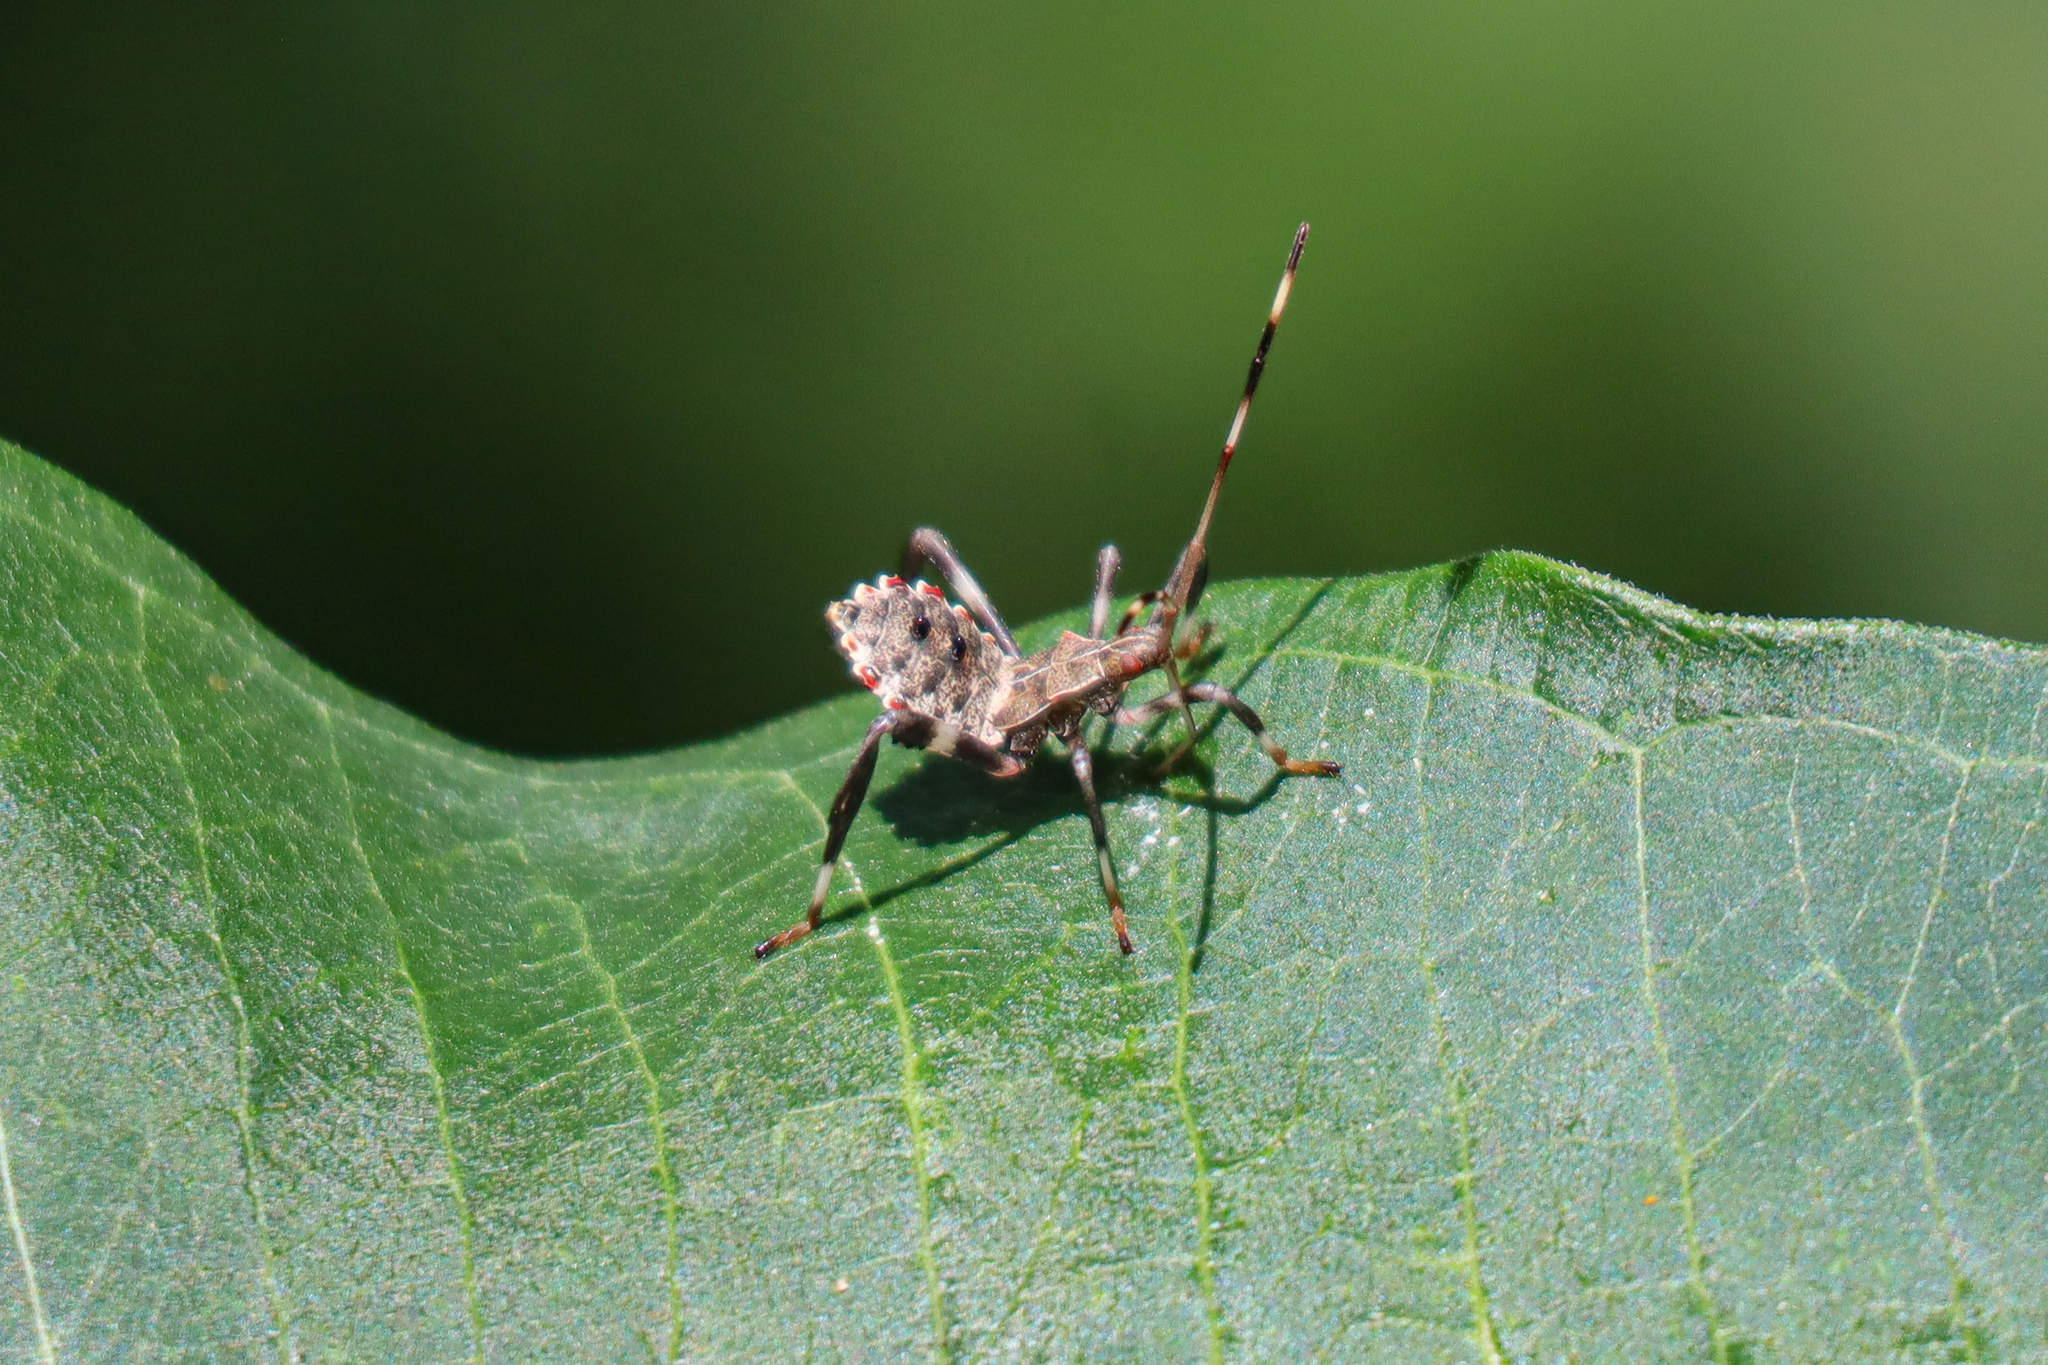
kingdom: Animalia
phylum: Arthropoda
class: Insecta
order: Hemiptera
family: Coreidae
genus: Acanthocephala
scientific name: Acanthocephala terminalis
